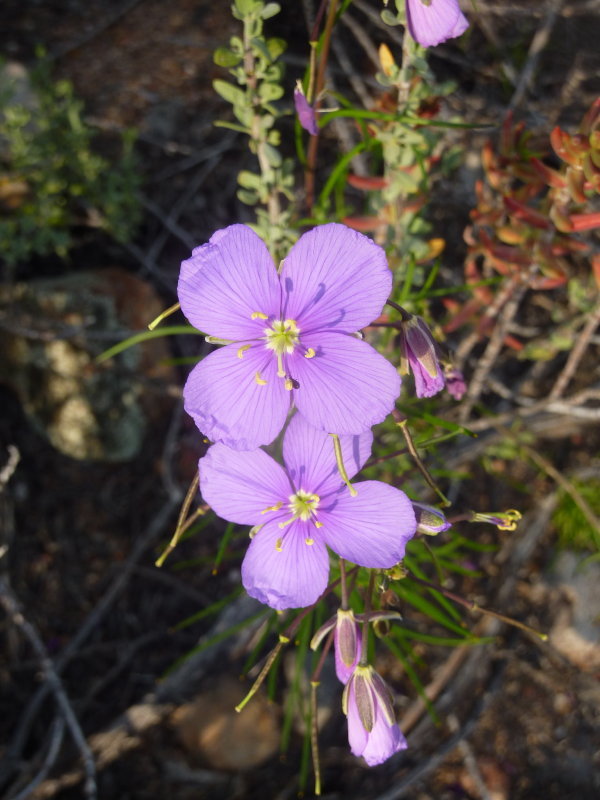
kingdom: Plantae
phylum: Tracheophyta
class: Magnoliopsida
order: Brassicales
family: Brassicaceae
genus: Heliophila
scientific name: Heliophila suavissima
